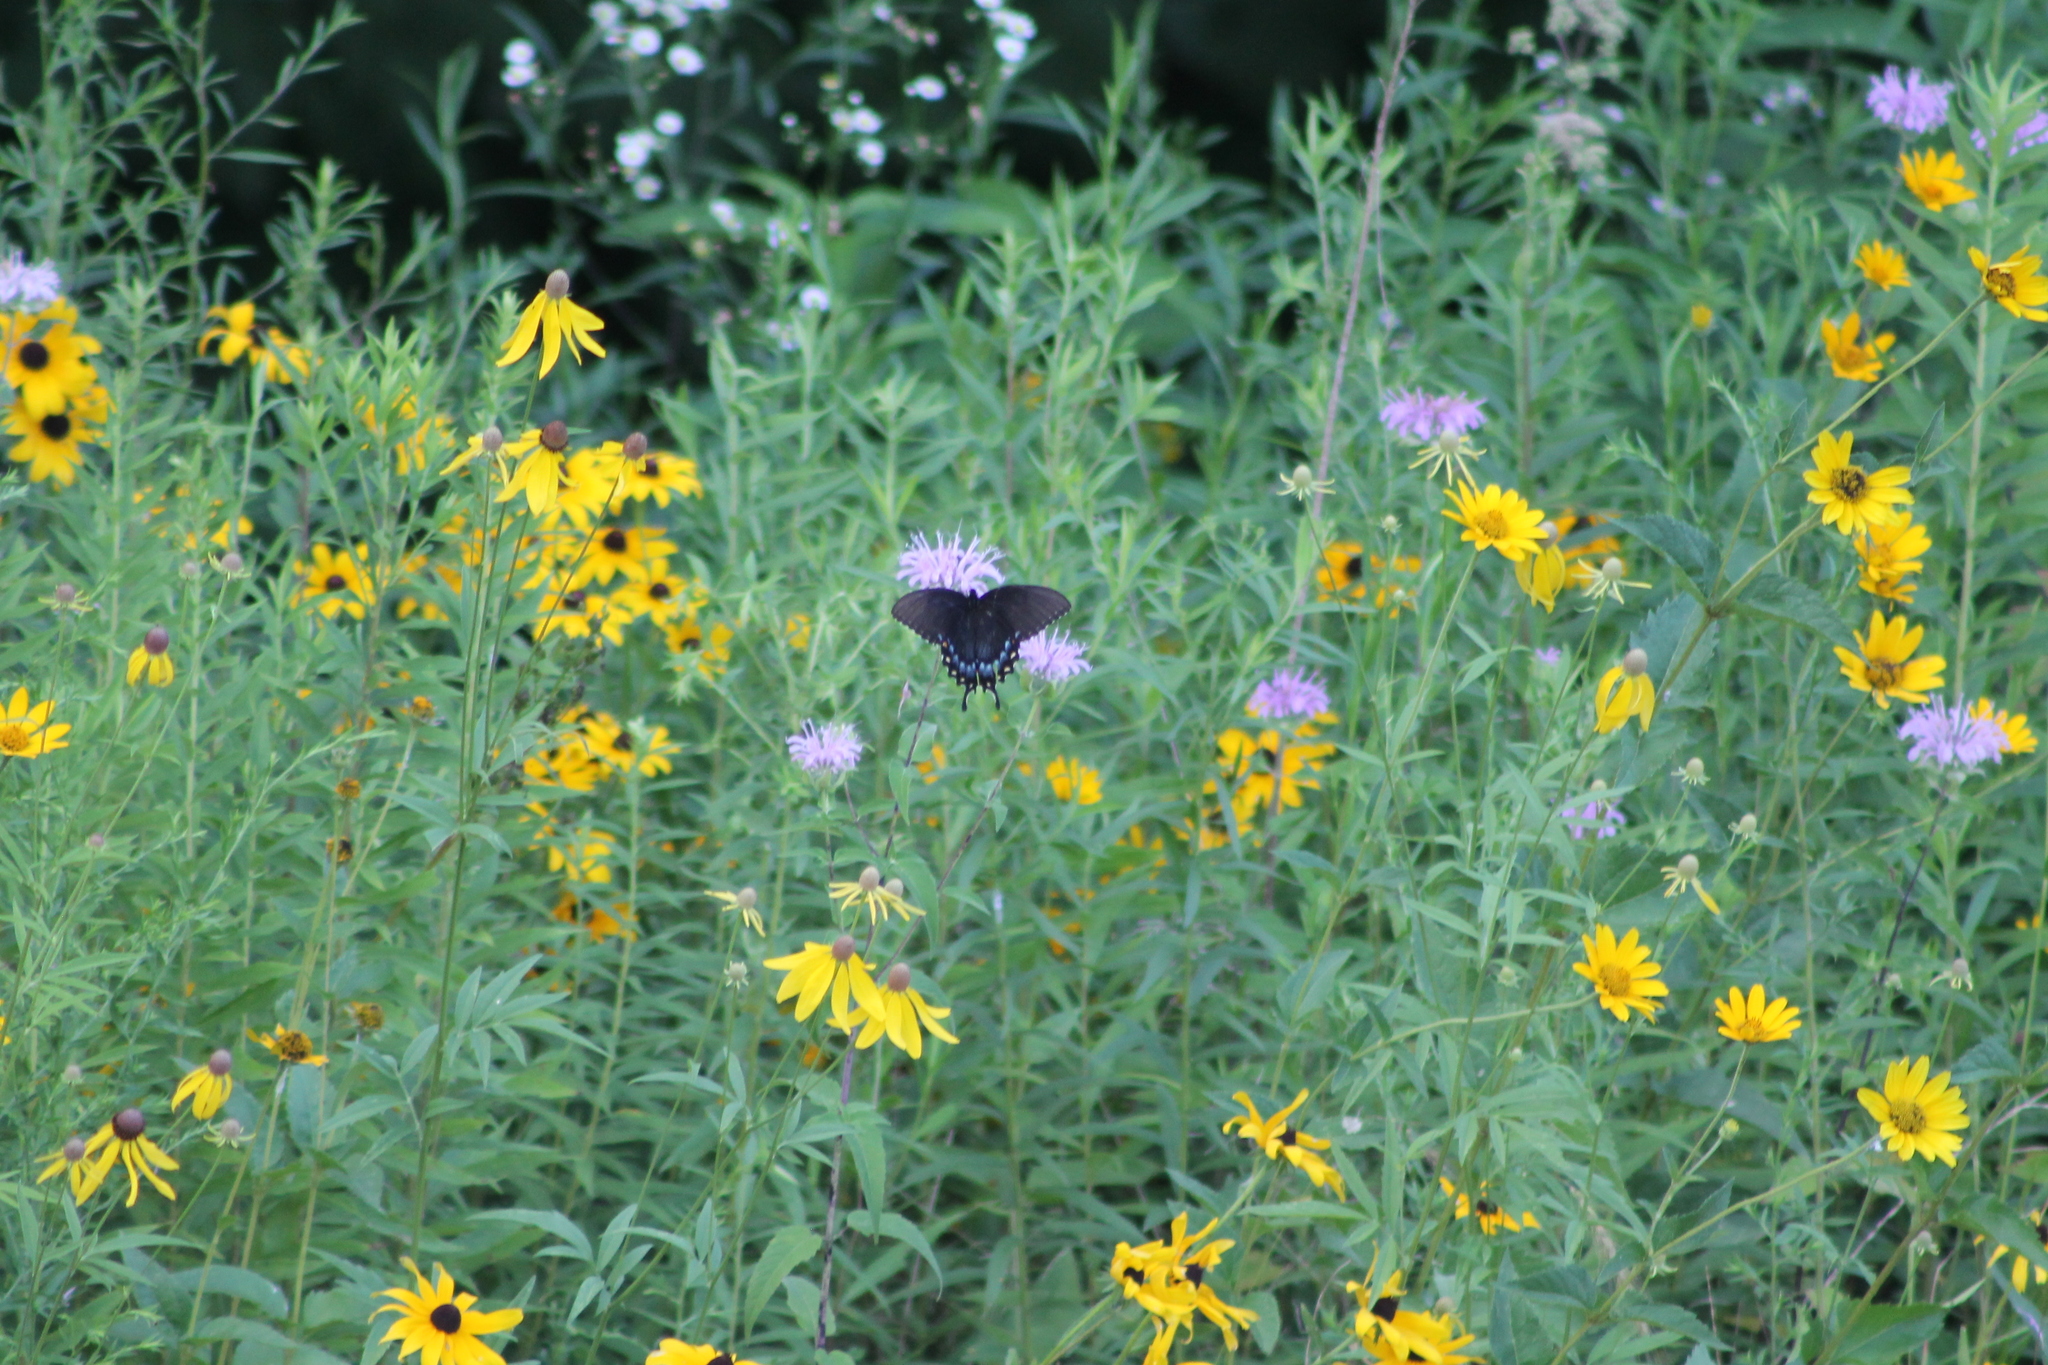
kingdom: Animalia
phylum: Arthropoda
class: Insecta
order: Lepidoptera
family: Papilionidae
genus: Papilio
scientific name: Papilio glaucus
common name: Tiger swallowtail
